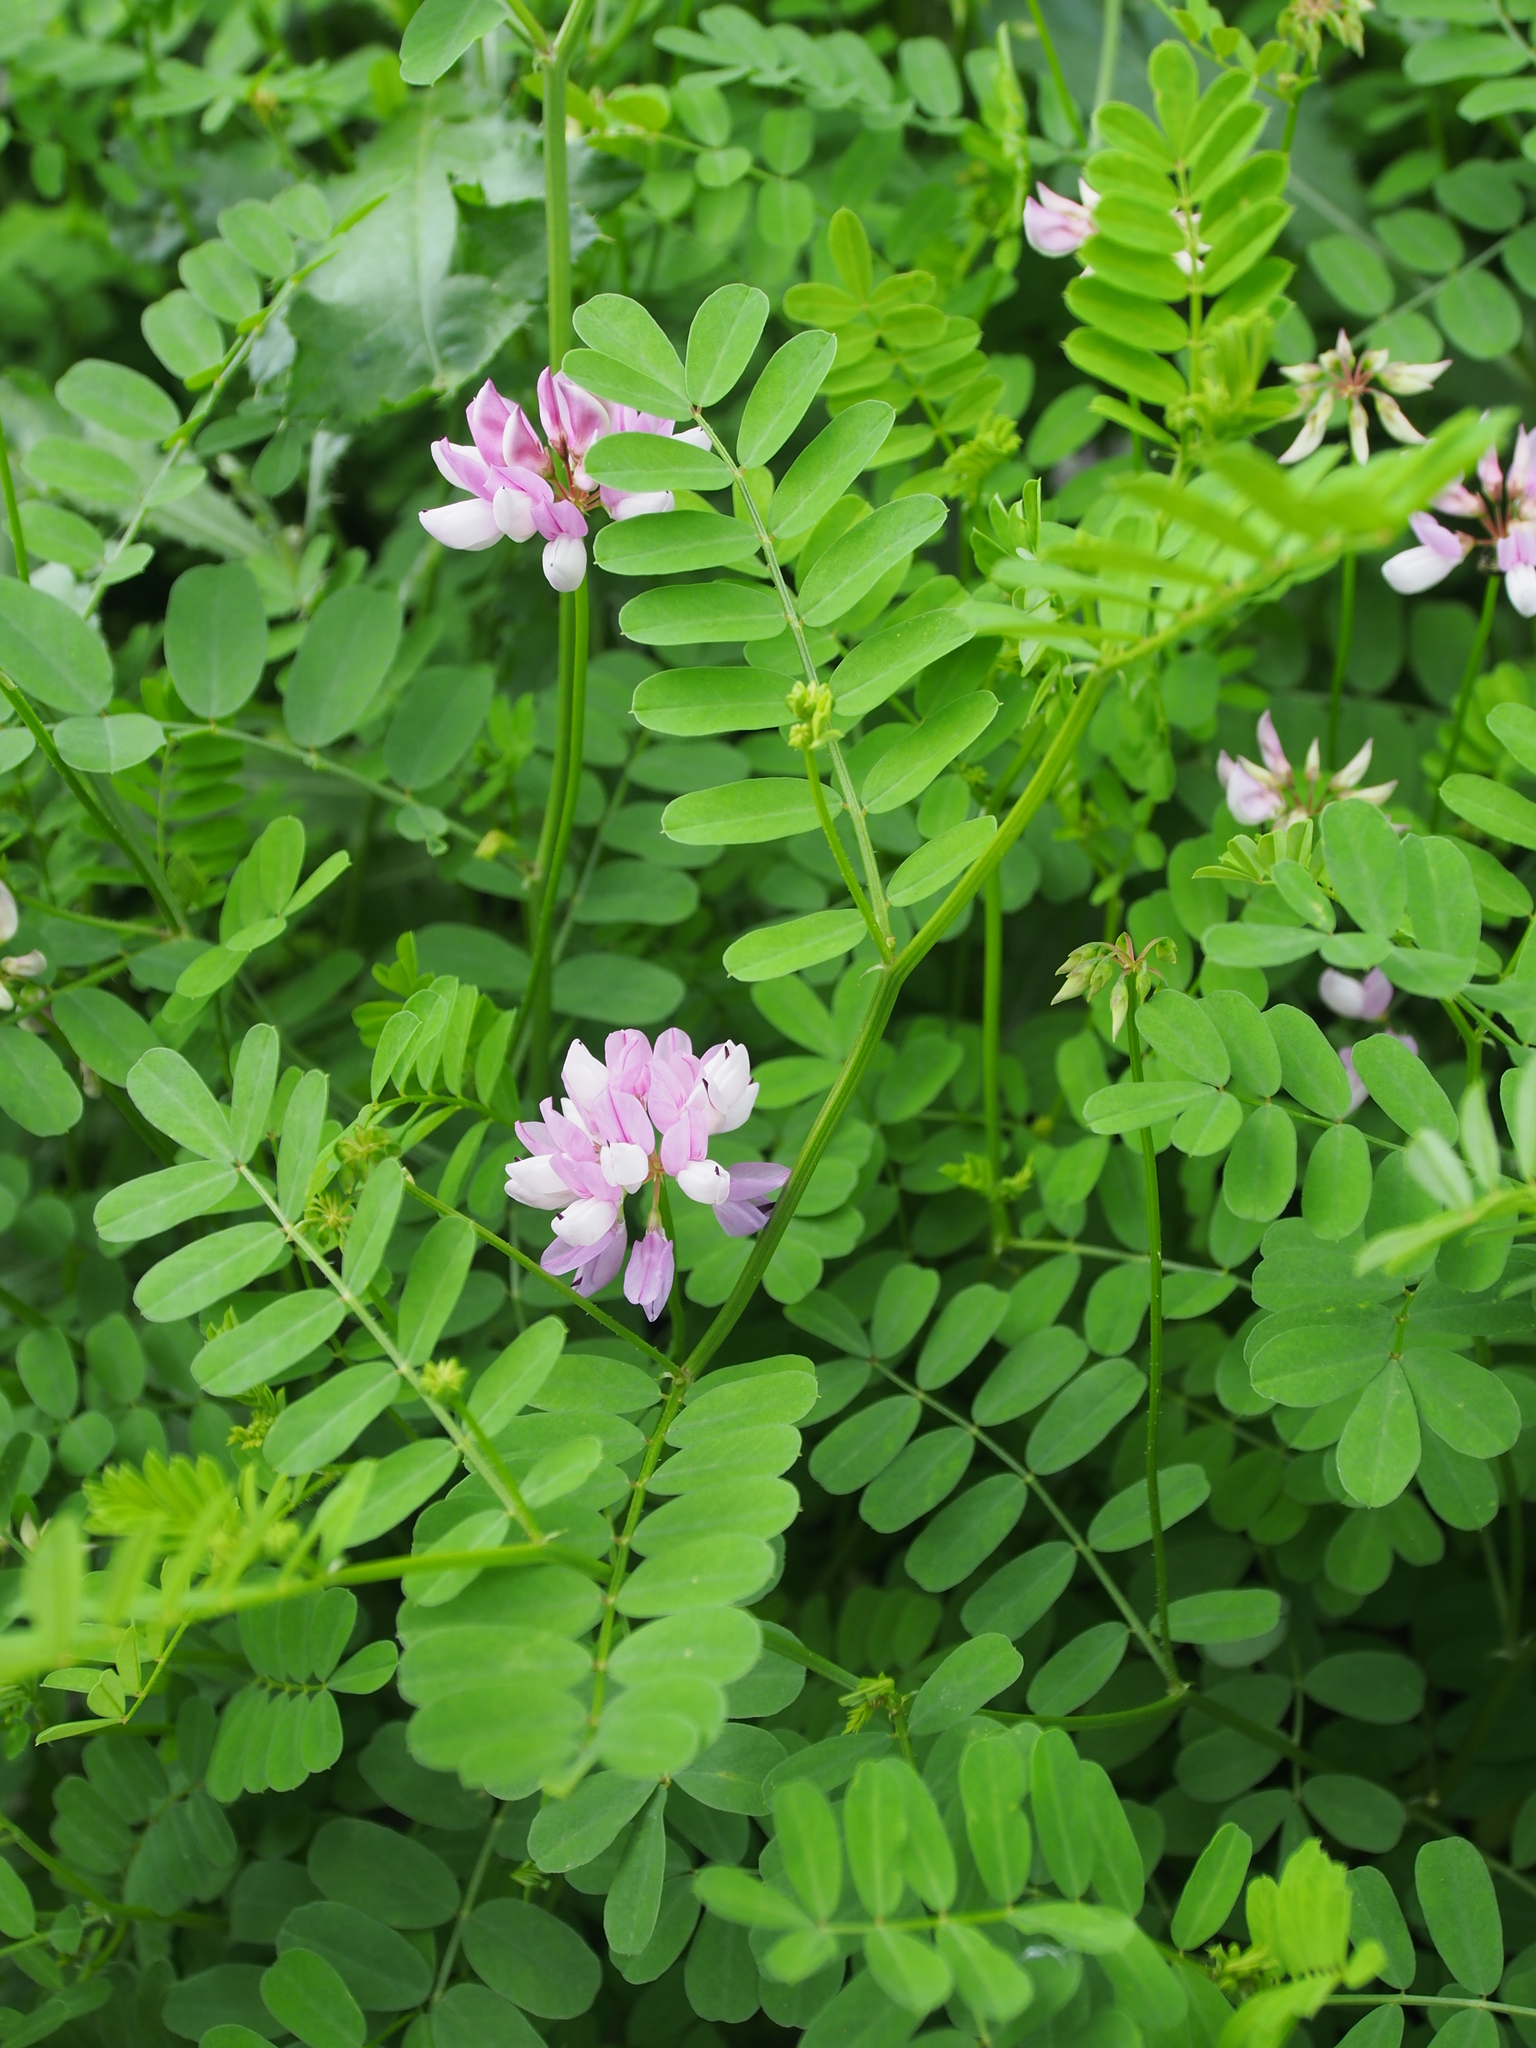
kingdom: Plantae
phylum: Tracheophyta
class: Magnoliopsida
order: Fabales
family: Fabaceae
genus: Coronilla
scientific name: Coronilla varia
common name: Crownvetch
